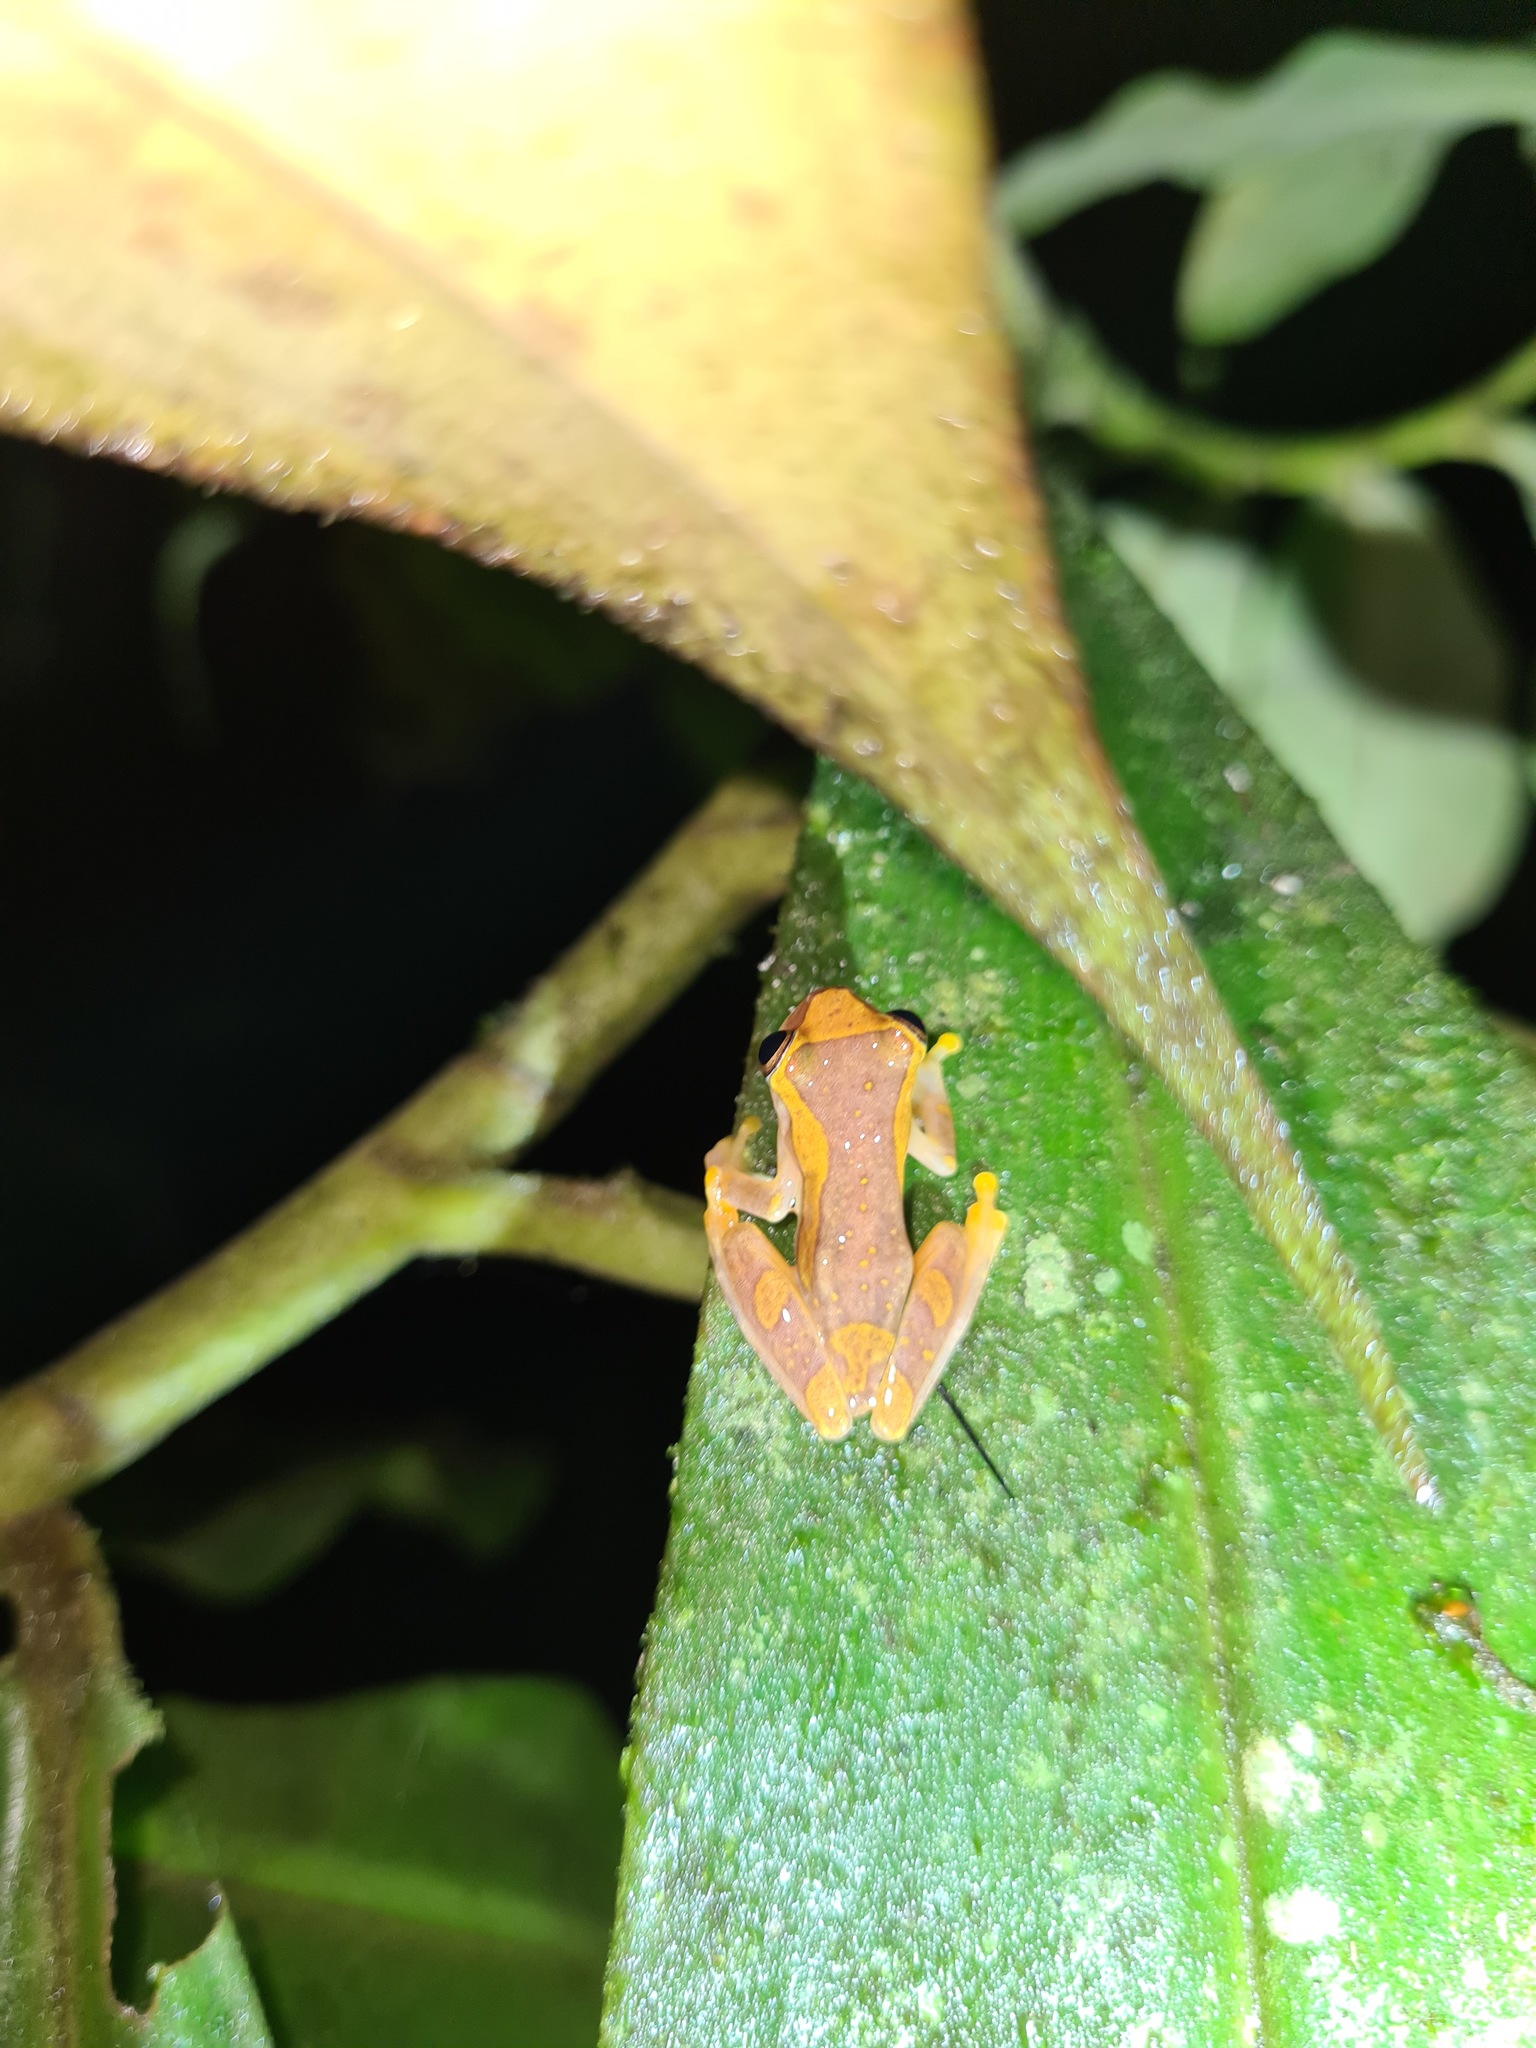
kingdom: Animalia
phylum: Chordata
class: Amphibia
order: Anura
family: Hylidae
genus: Dendropsophus
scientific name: Dendropsophus ebraccatus
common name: Hourglass treefrog
